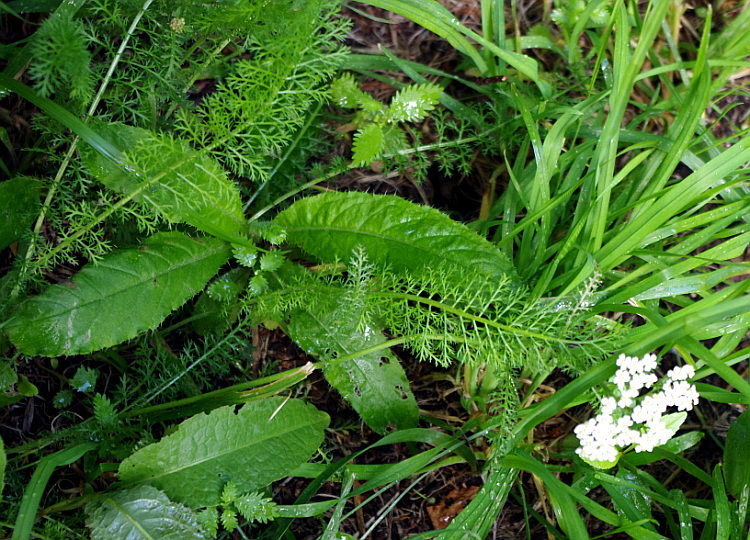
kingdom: Plantae
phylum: Tracheophyta
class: Magnoliopsida
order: Asterales
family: Asteraceae
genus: Achillea
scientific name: Achillea millefolium
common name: Yarrow
